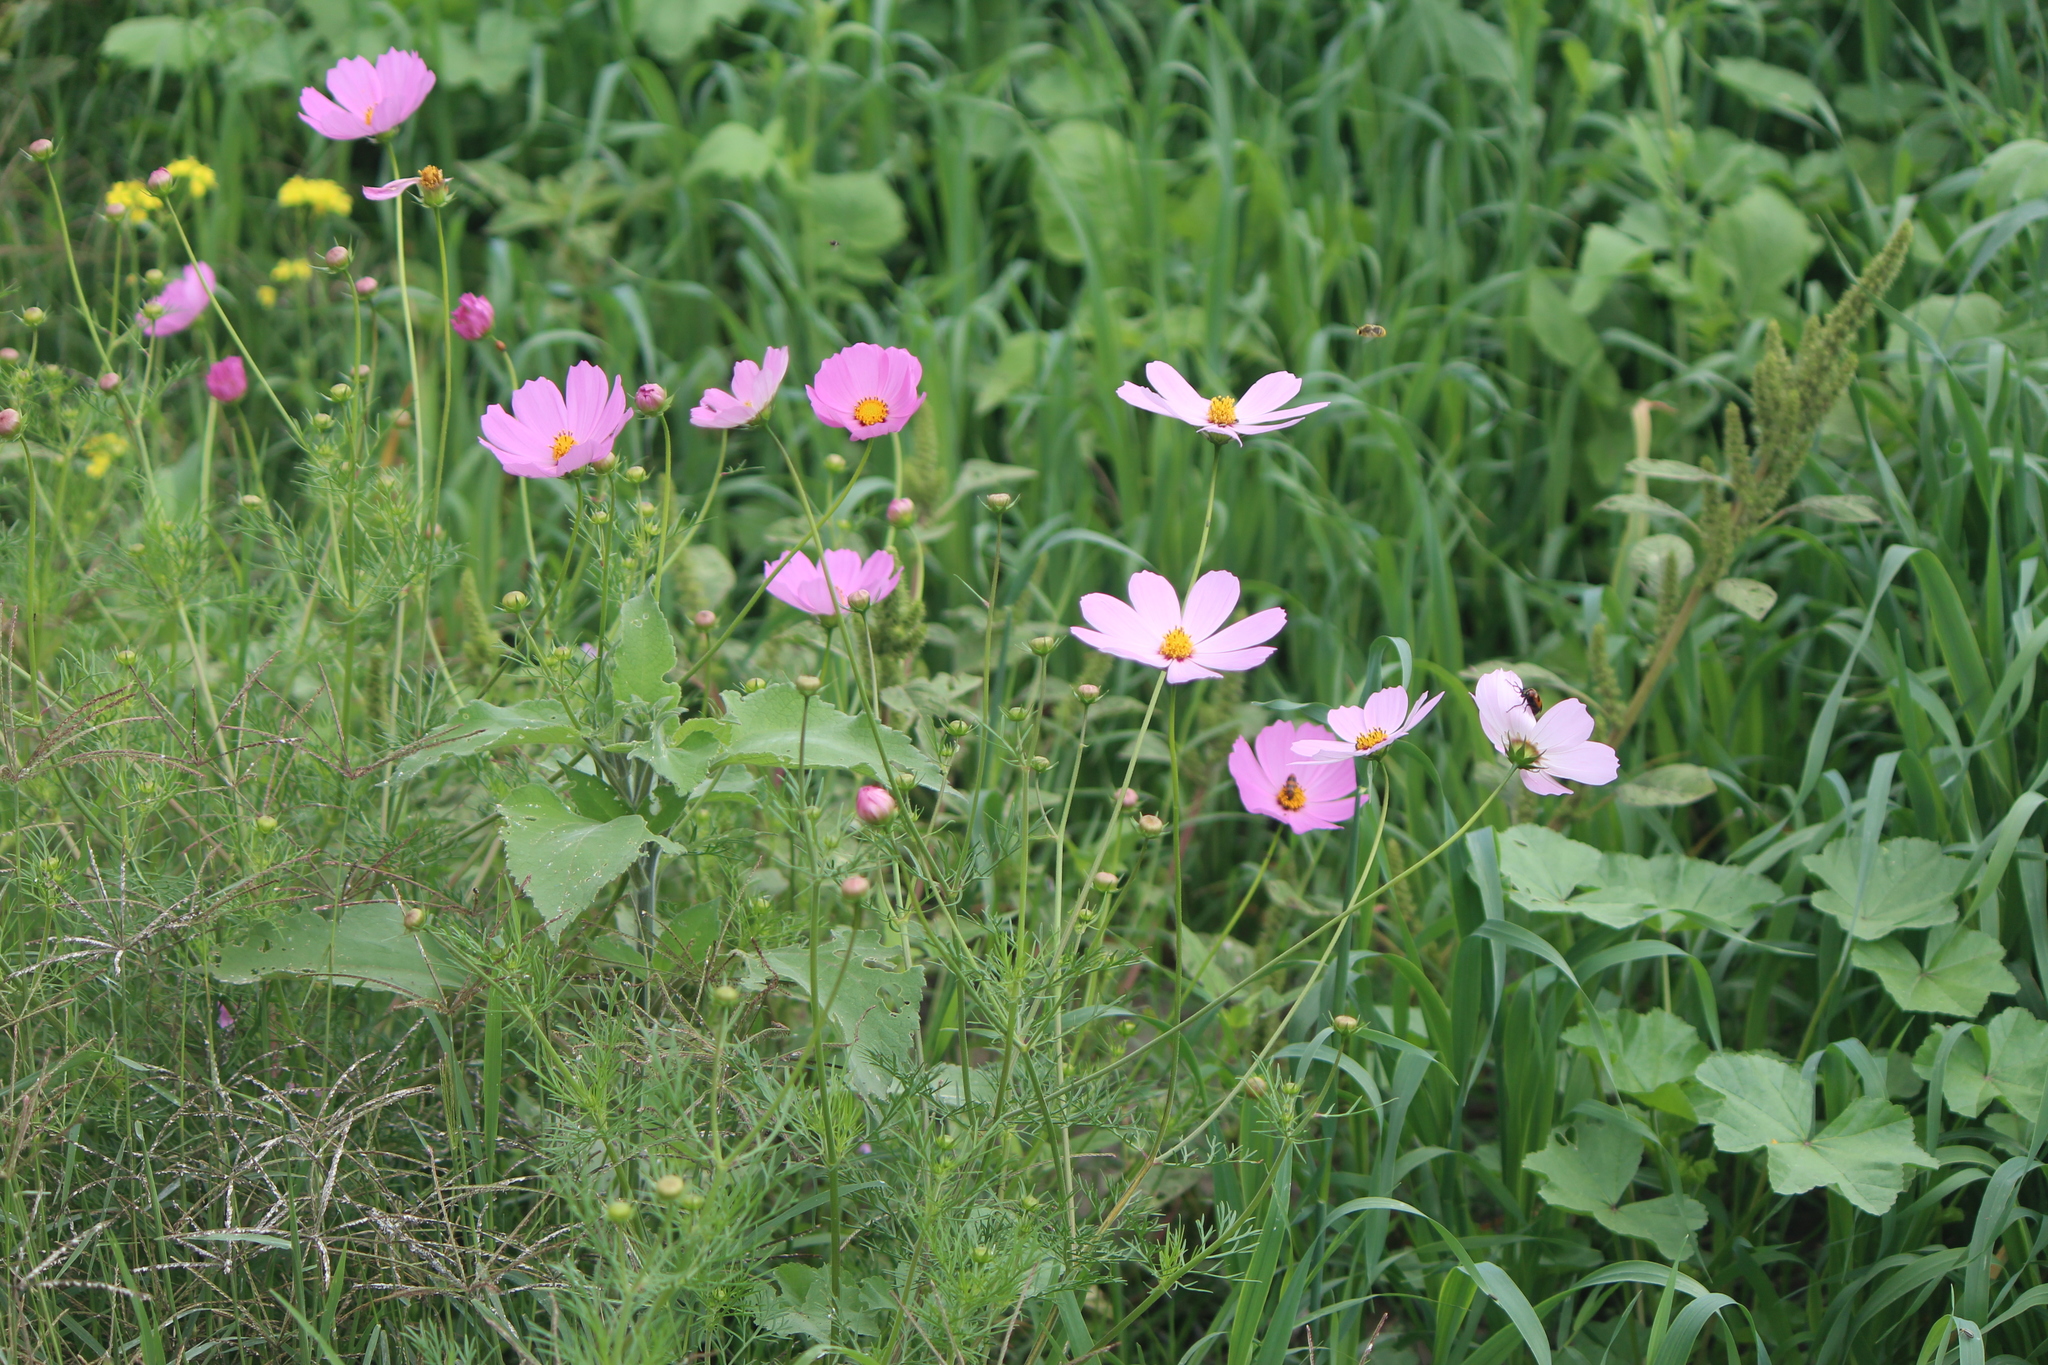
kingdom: Plantae
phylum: Tracheophyta
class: Magnoliopsida
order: Asterales
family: Asteraceae
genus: Cosmos
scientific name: Cosmos bipinnatus
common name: Garden cosmos
